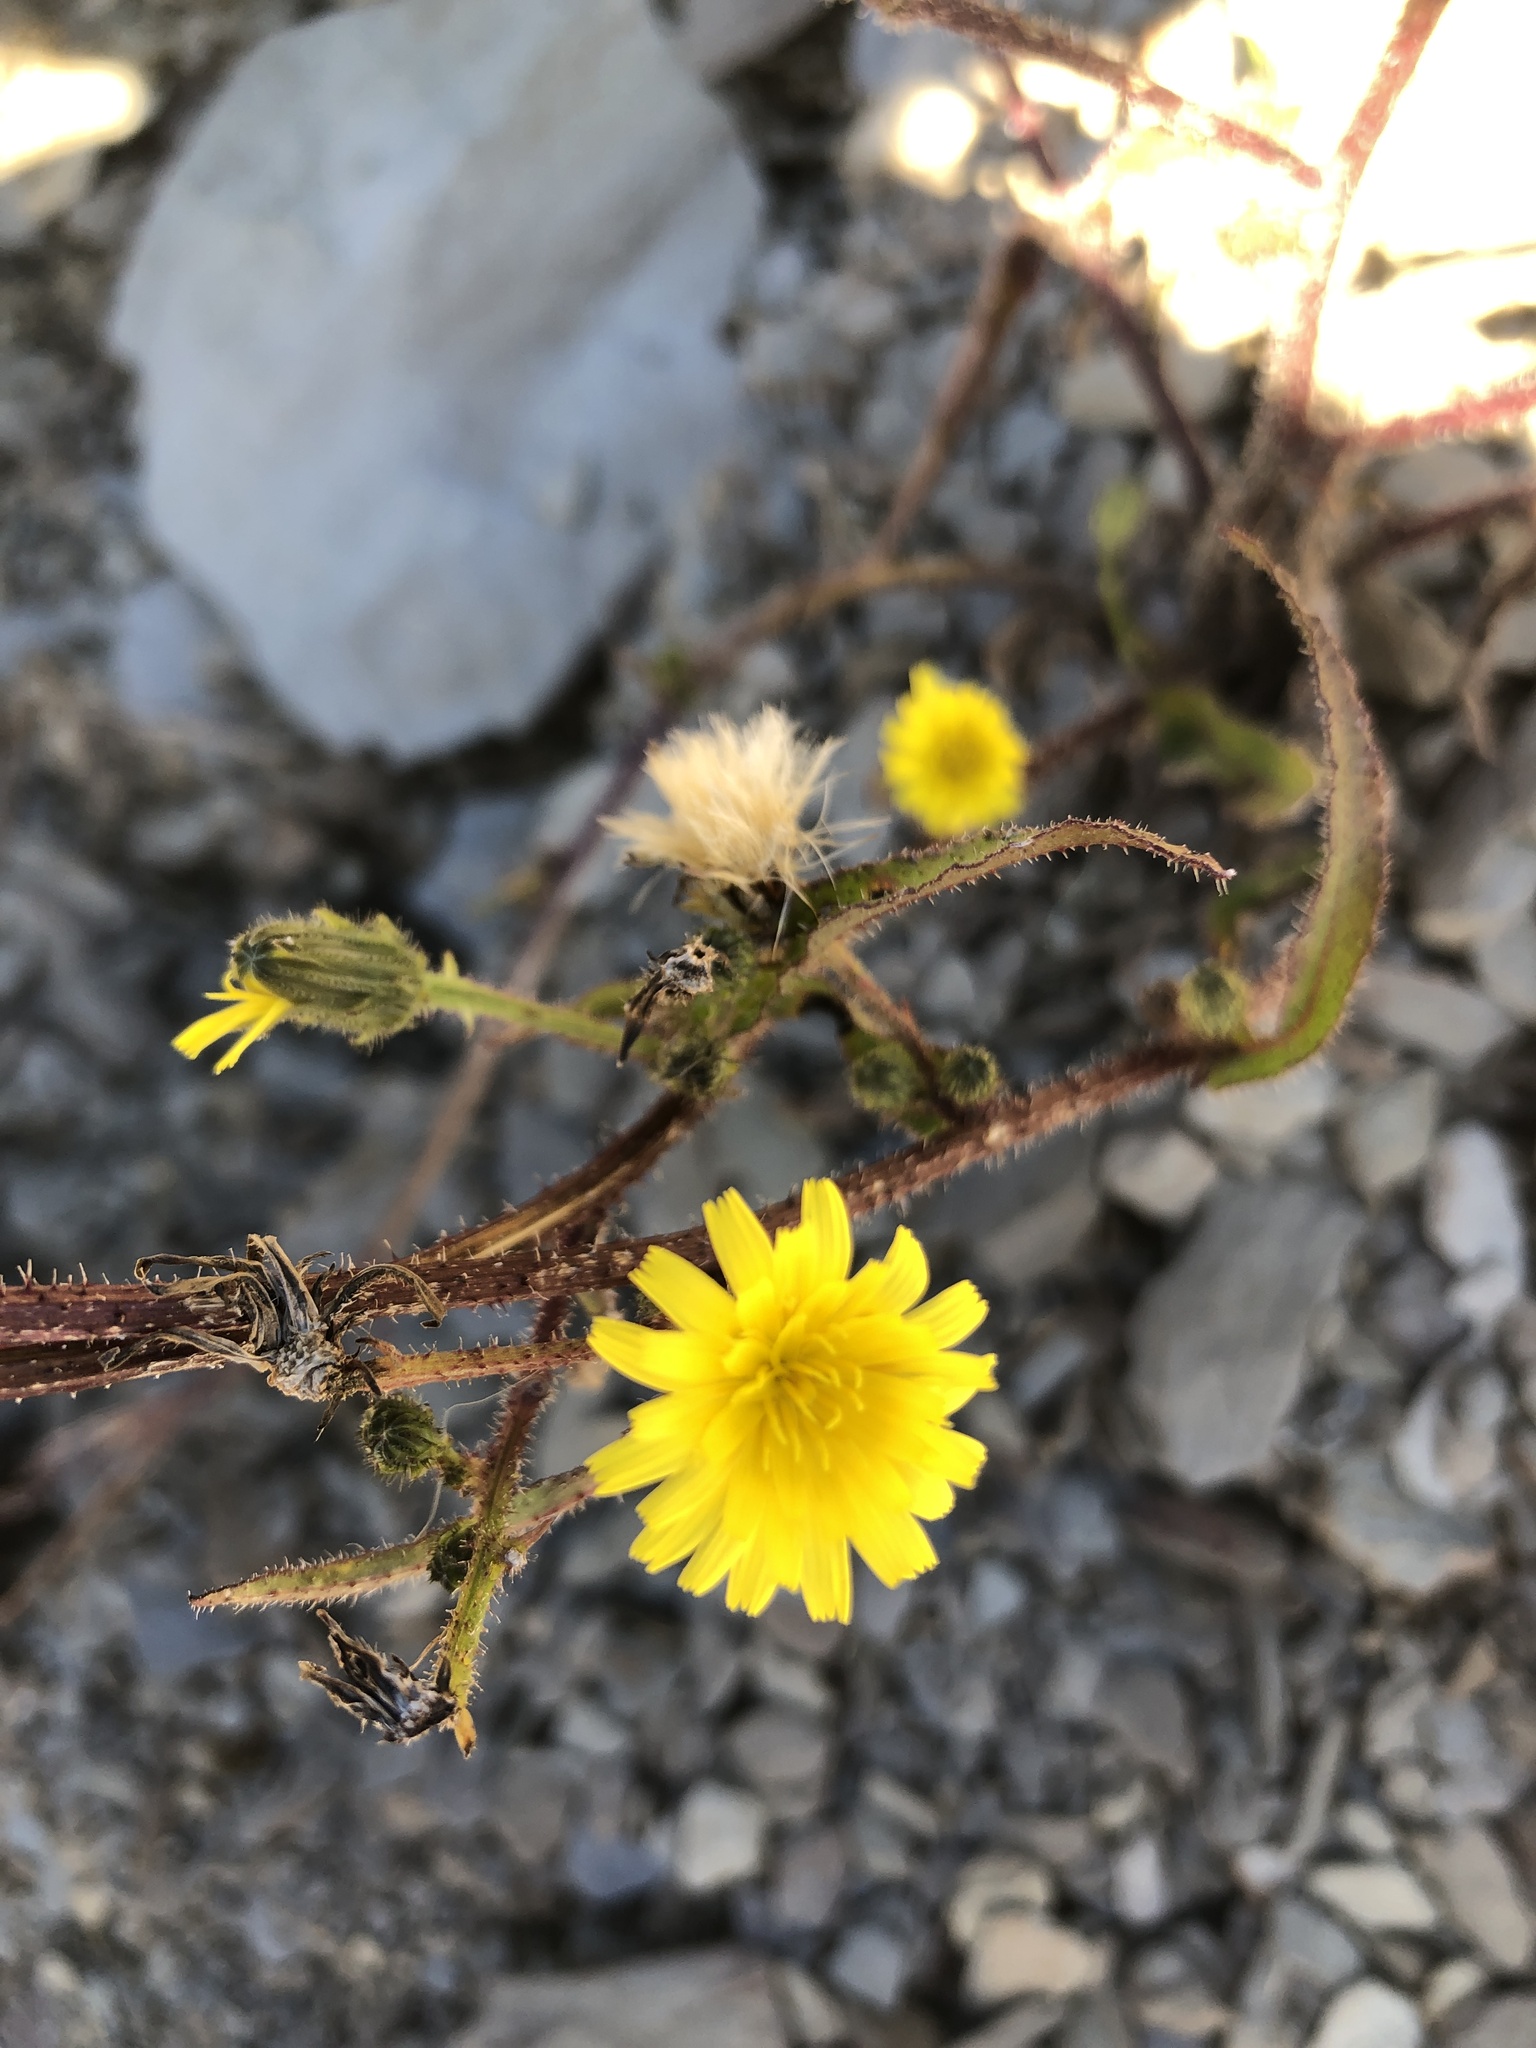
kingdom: Plantae
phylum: Tracheophyta
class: Magnoliopsida
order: Asterales
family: Asteraceae
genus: Picris
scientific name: Picris hieracioides
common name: Hawkweed oxtongue
